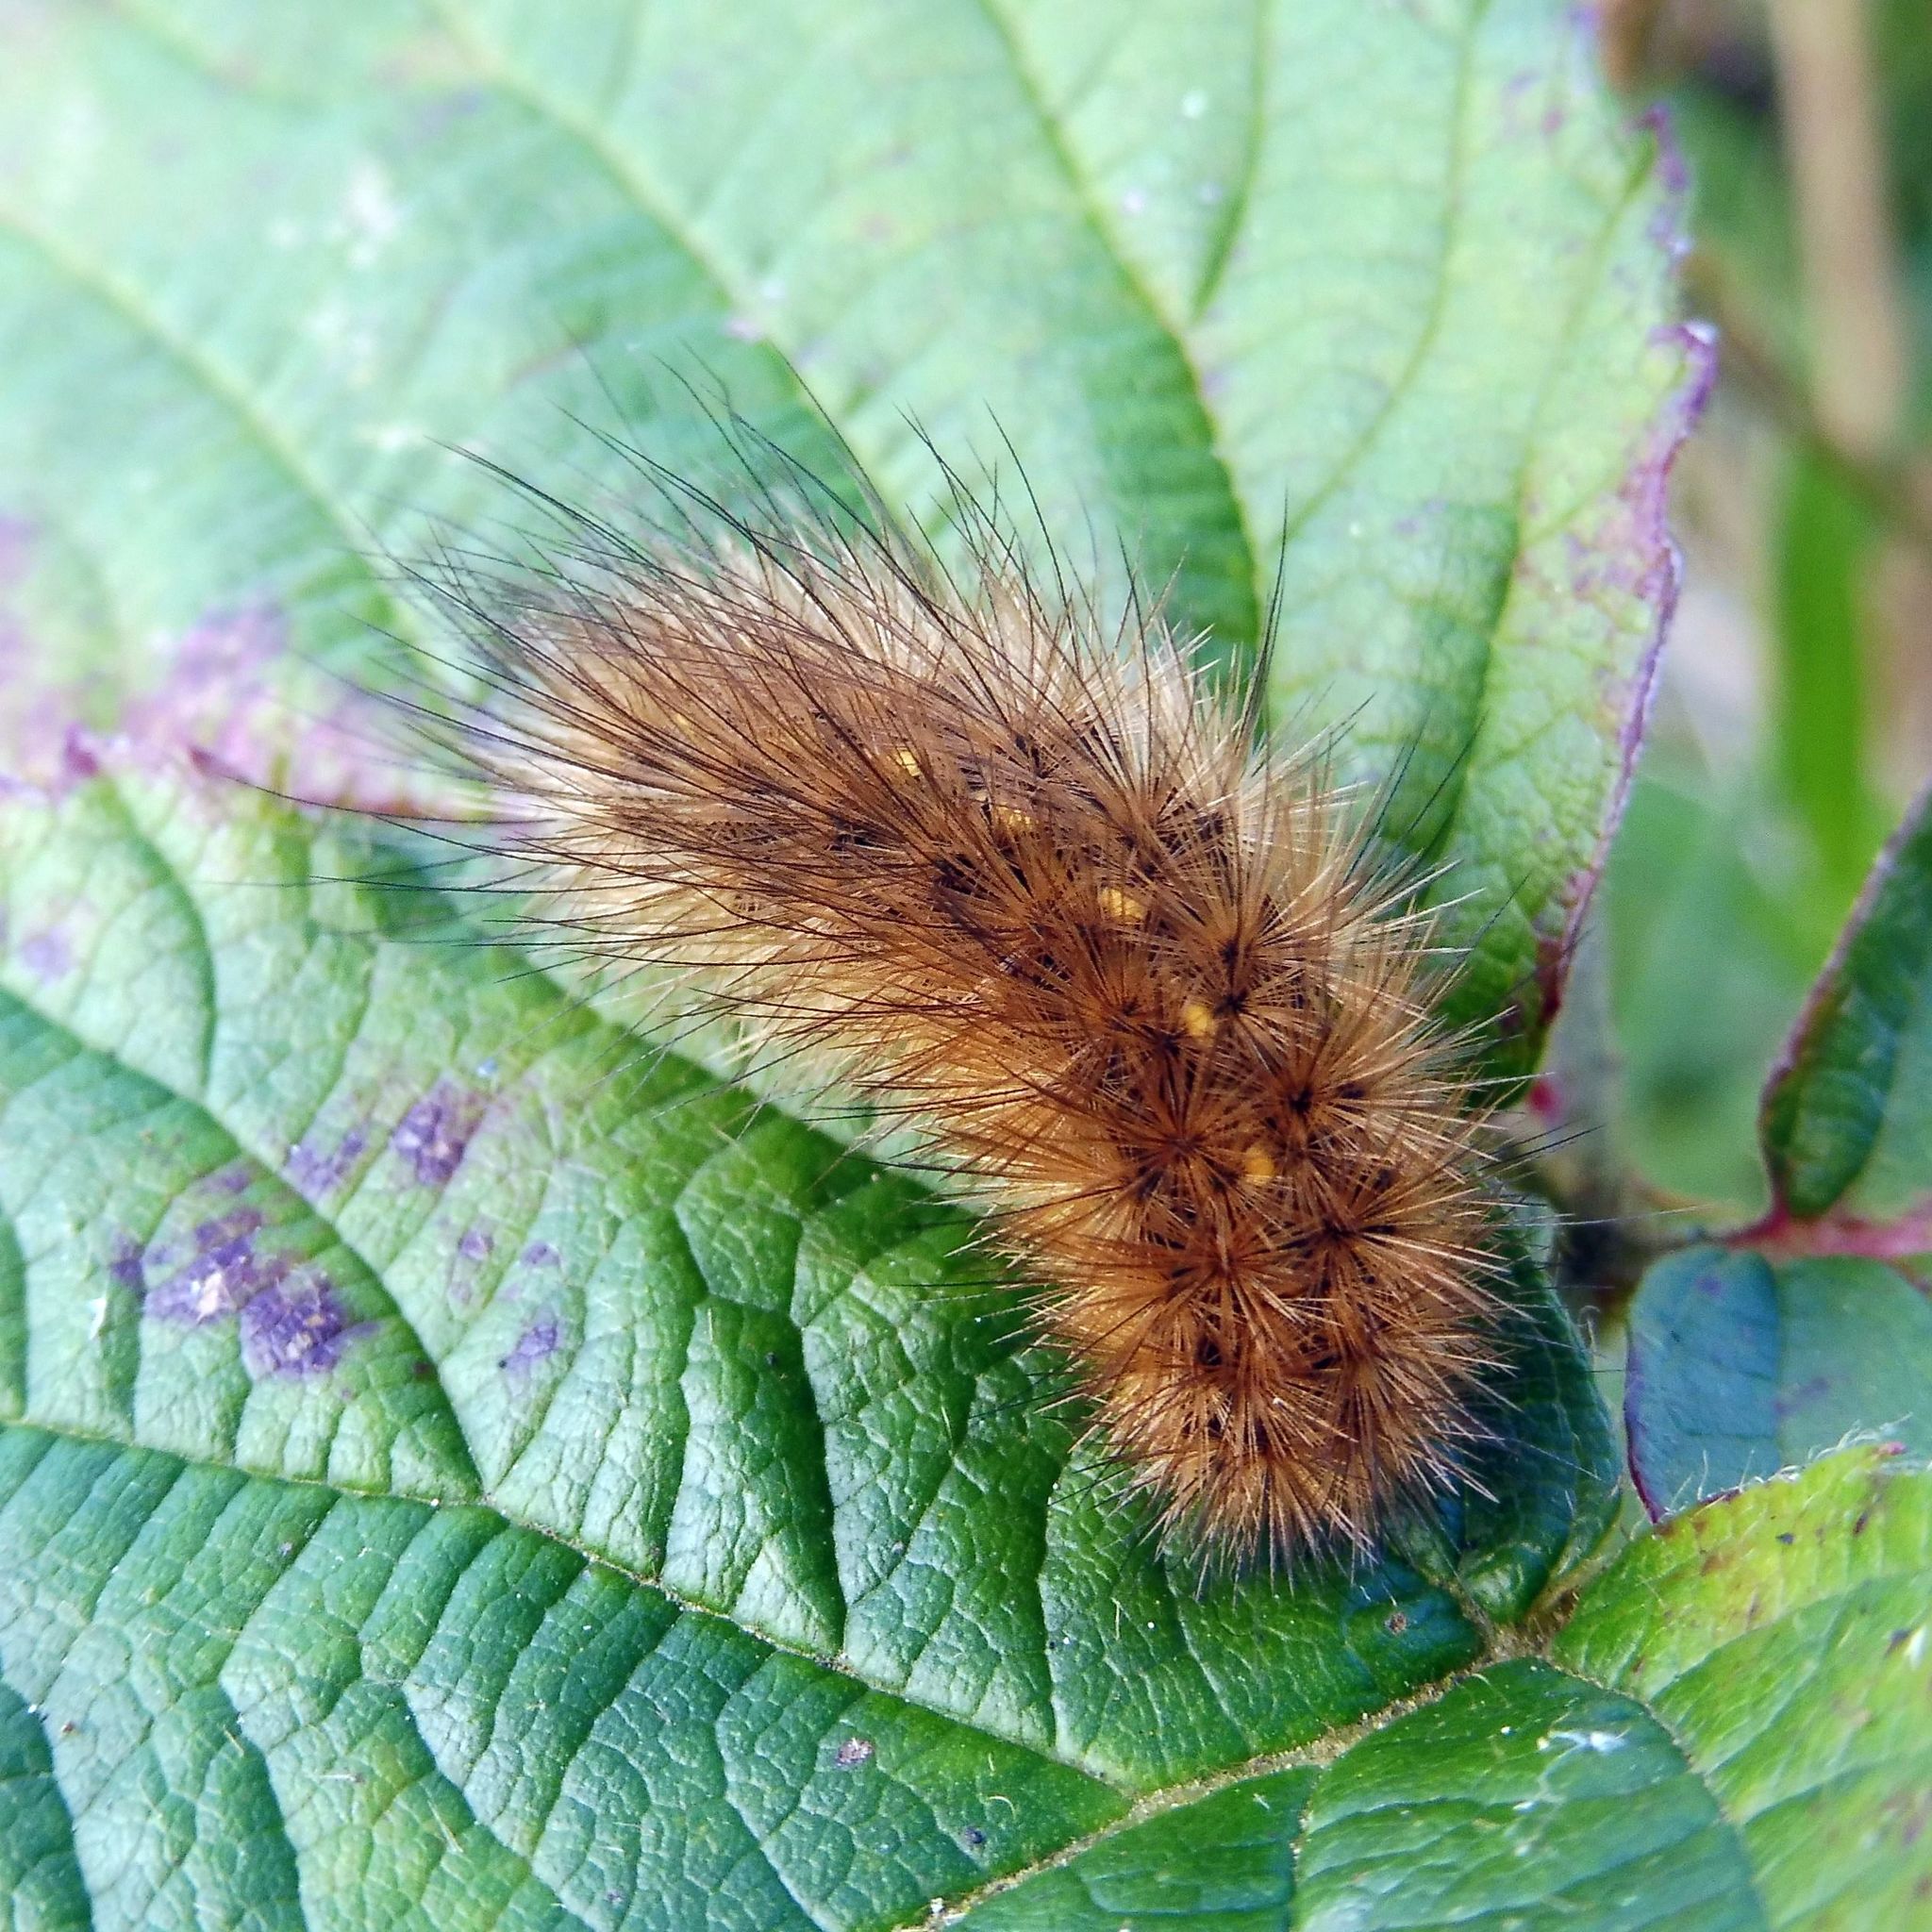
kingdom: Animalia
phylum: Arthropoda
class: Insecta
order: Lepidoptera
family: Erebidae
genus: Phragmatobia
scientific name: Phragmatobia fuliginosa
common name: Ruby tiger
